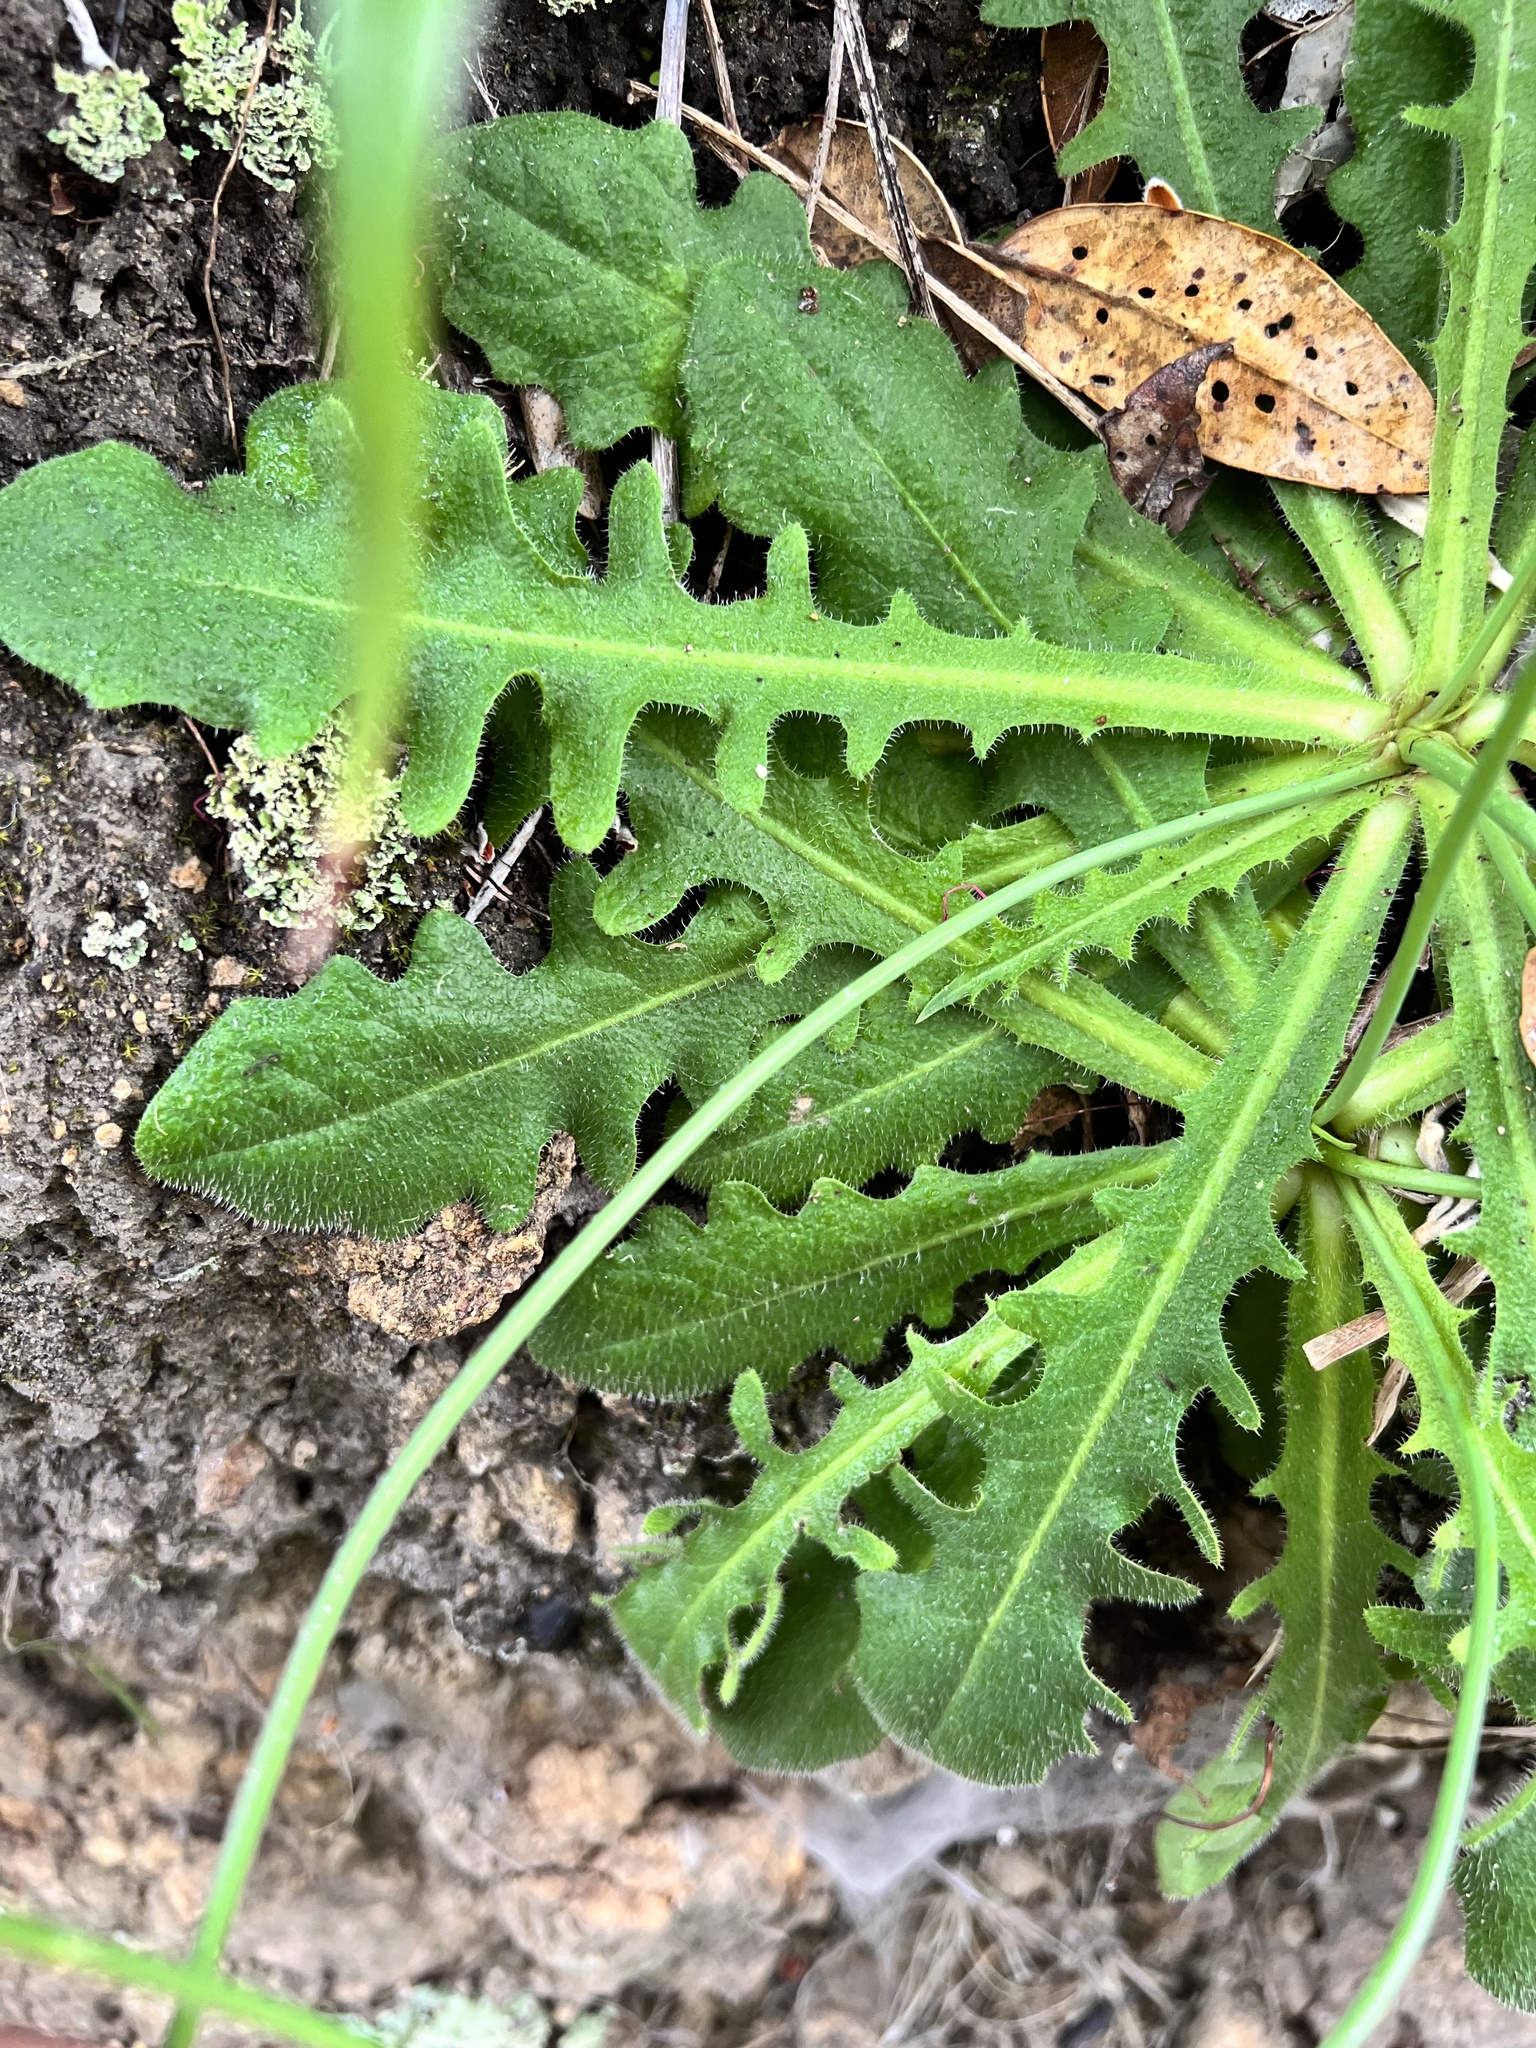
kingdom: Plantae
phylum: Tracheophyta
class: Magnoliopsida
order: Asterales
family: Asteraceae
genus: Hypochaeris
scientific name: Hypochaeris radicata
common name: Flatweed
